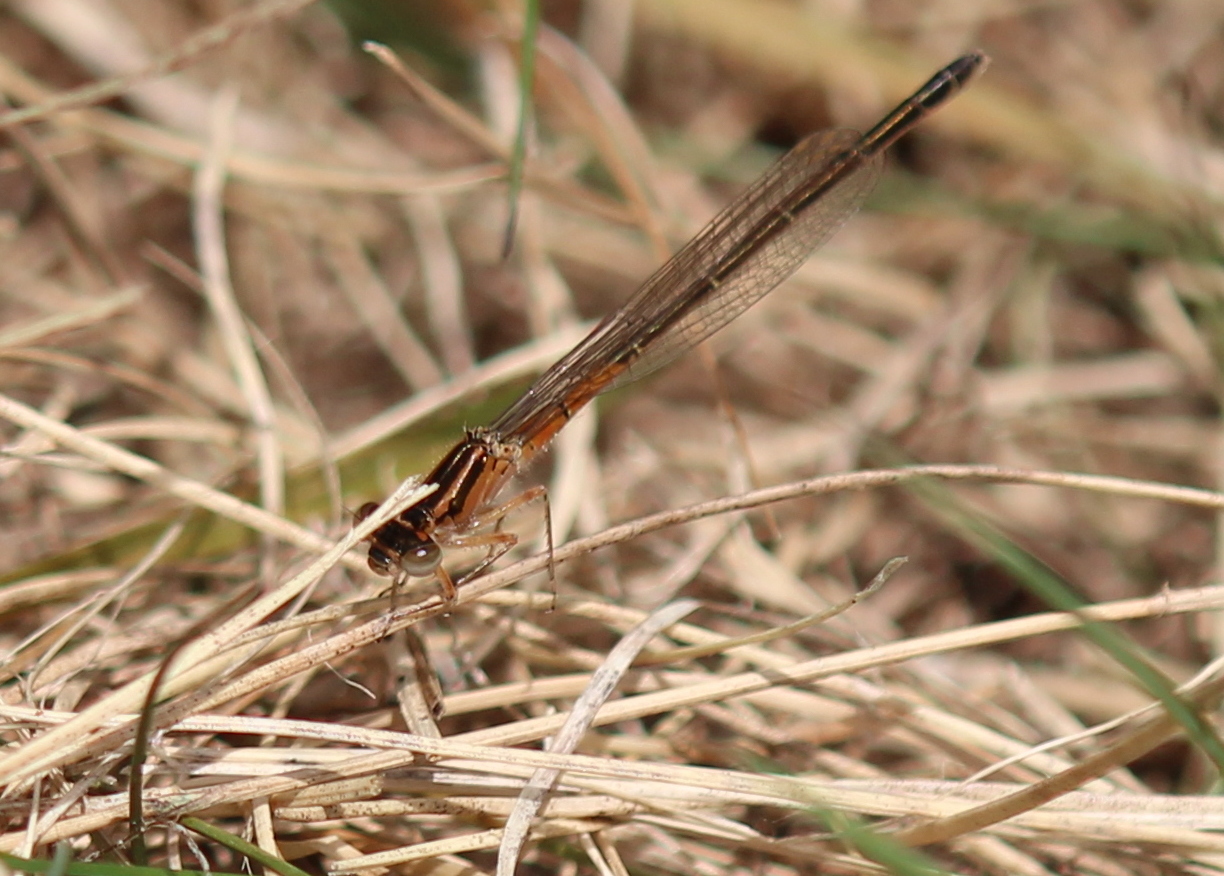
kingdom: Animalia
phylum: Arthropoda
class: Insecta
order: Odonata
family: Coenagrionidae
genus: Ischnura
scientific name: Ischnura verticalis
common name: Eastern forktail
